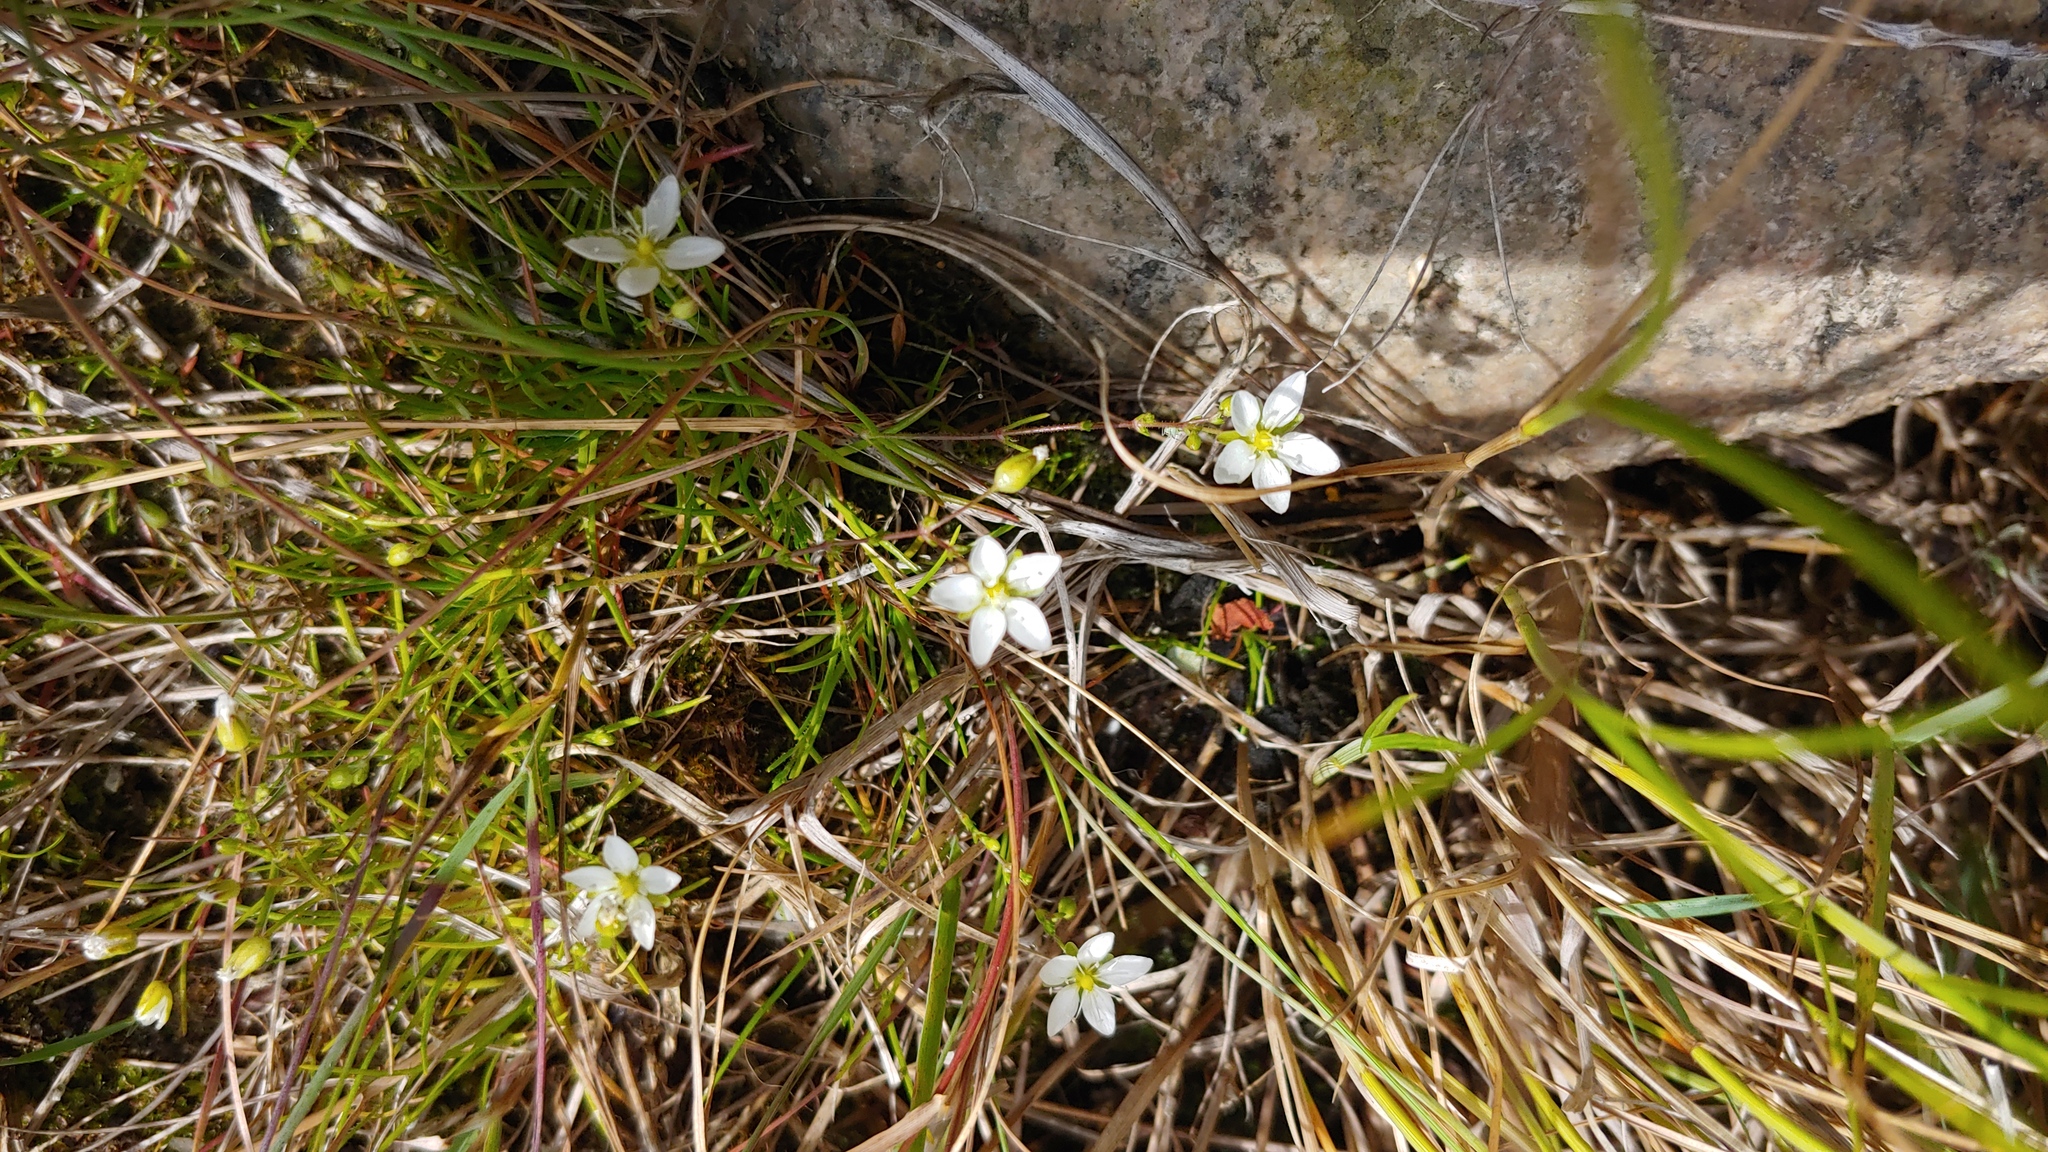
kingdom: Plantae
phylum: Tracheophyta
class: Magnoliopsida
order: Caryophyllales
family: Caryophyllaceae
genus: Sagina
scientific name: Sagina nodosa
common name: Knotted pearlwort
